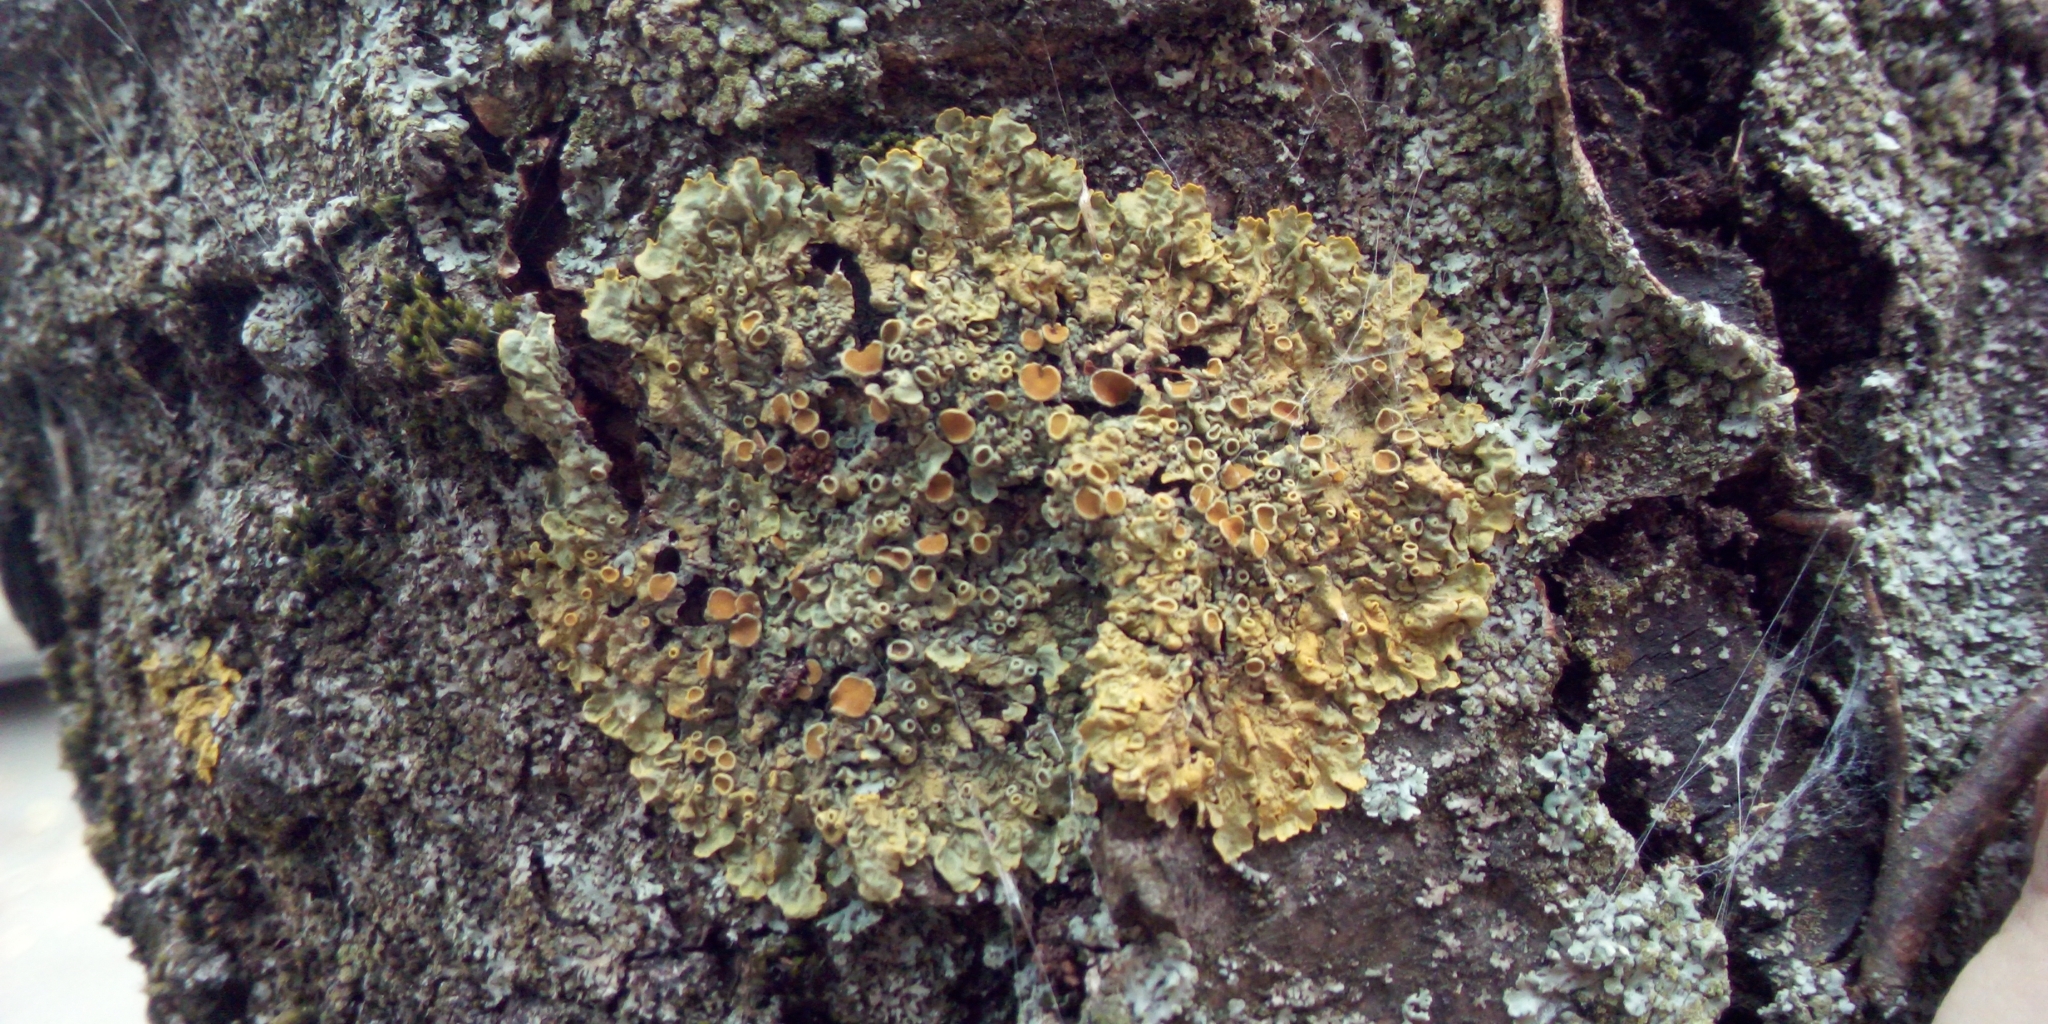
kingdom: Fungi
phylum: Ascomycota
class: Lecanoromycetes
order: Teloschistales
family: Teloschistaceae
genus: Xanthoria
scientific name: Xanthoria parietina
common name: Common orange lichen
